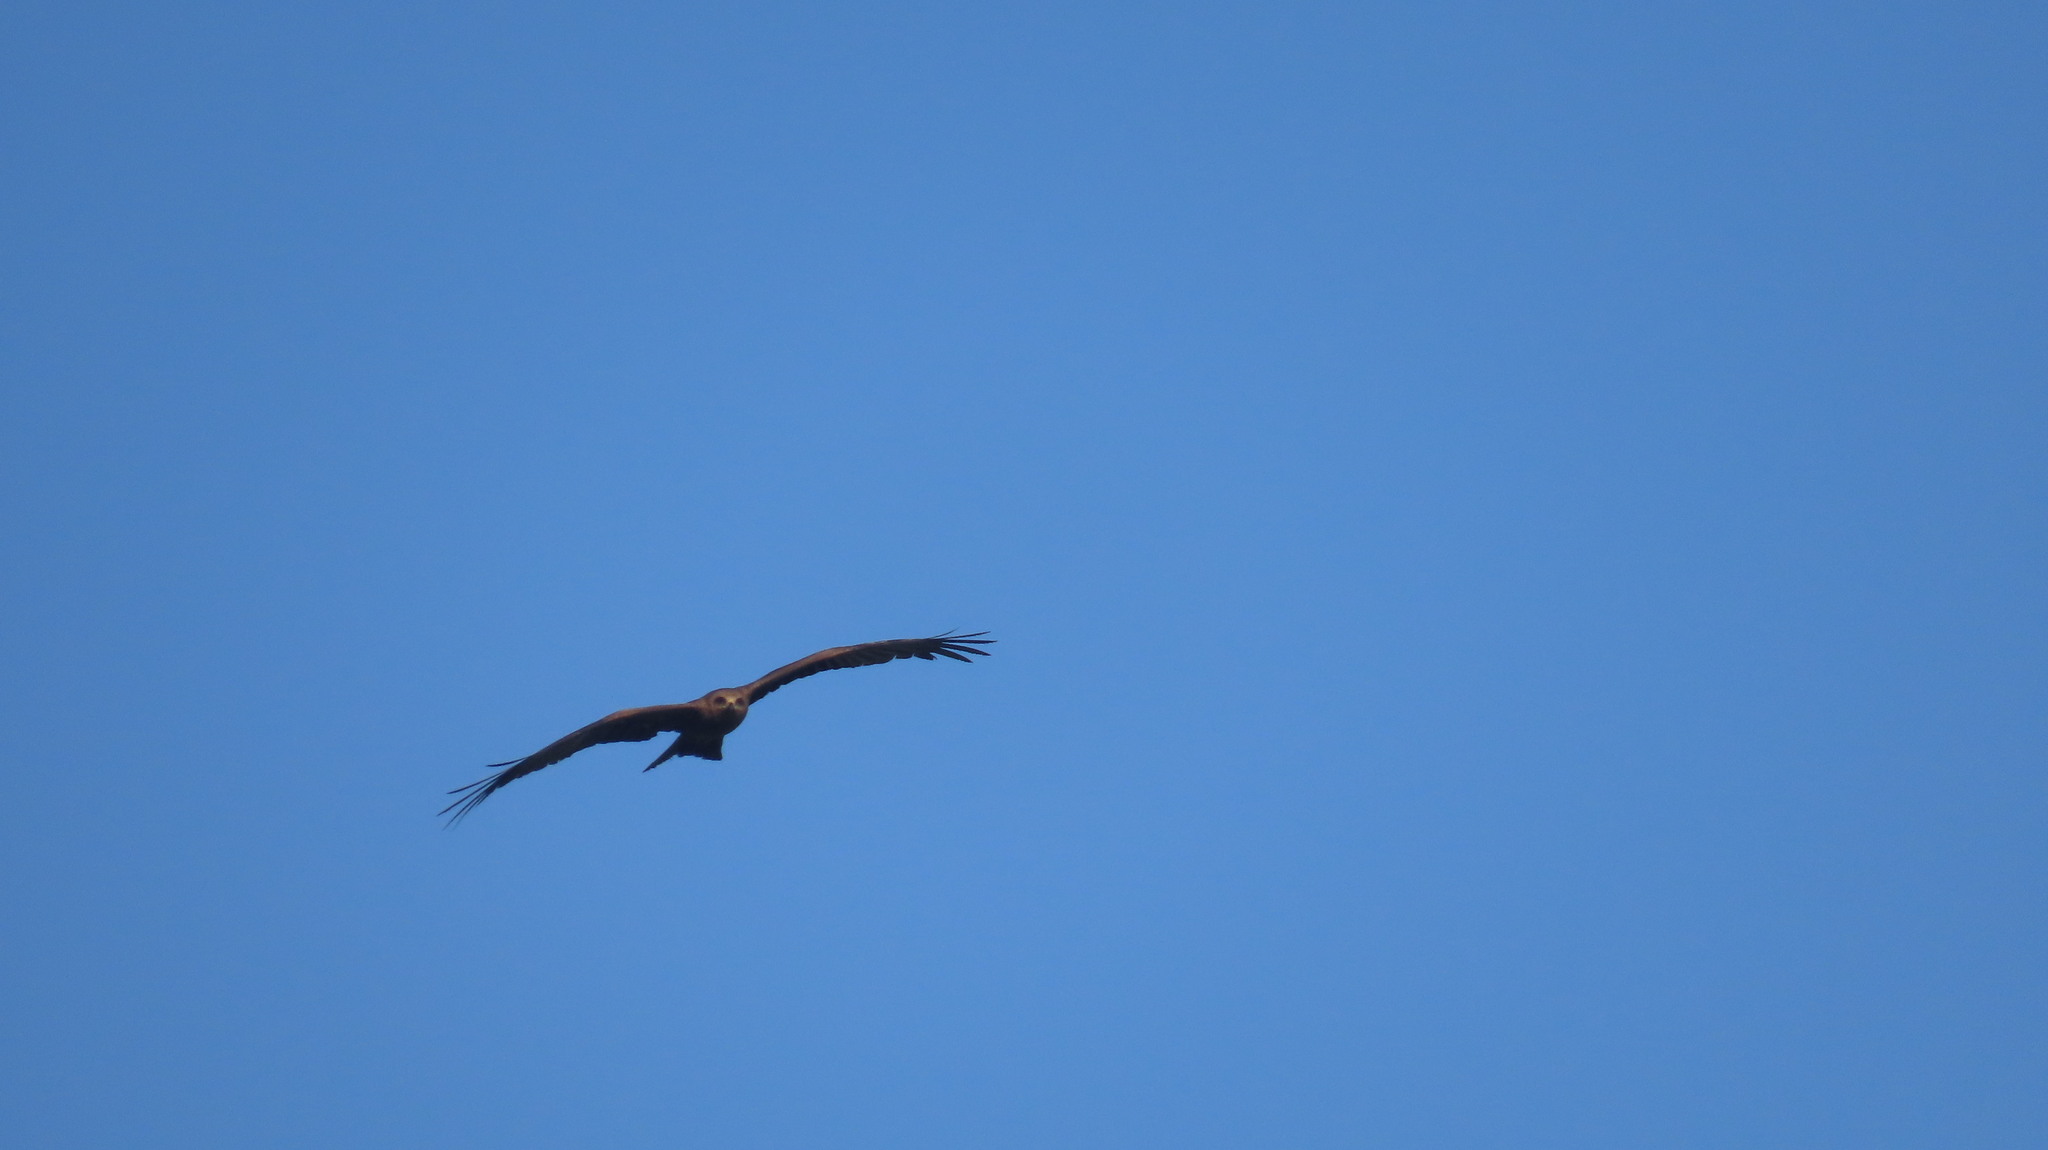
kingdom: Animalia
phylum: Chordata
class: Aves
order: Accipitriformes
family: Accipitridae
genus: Milvus
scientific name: Milvus migrans
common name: Black kite
